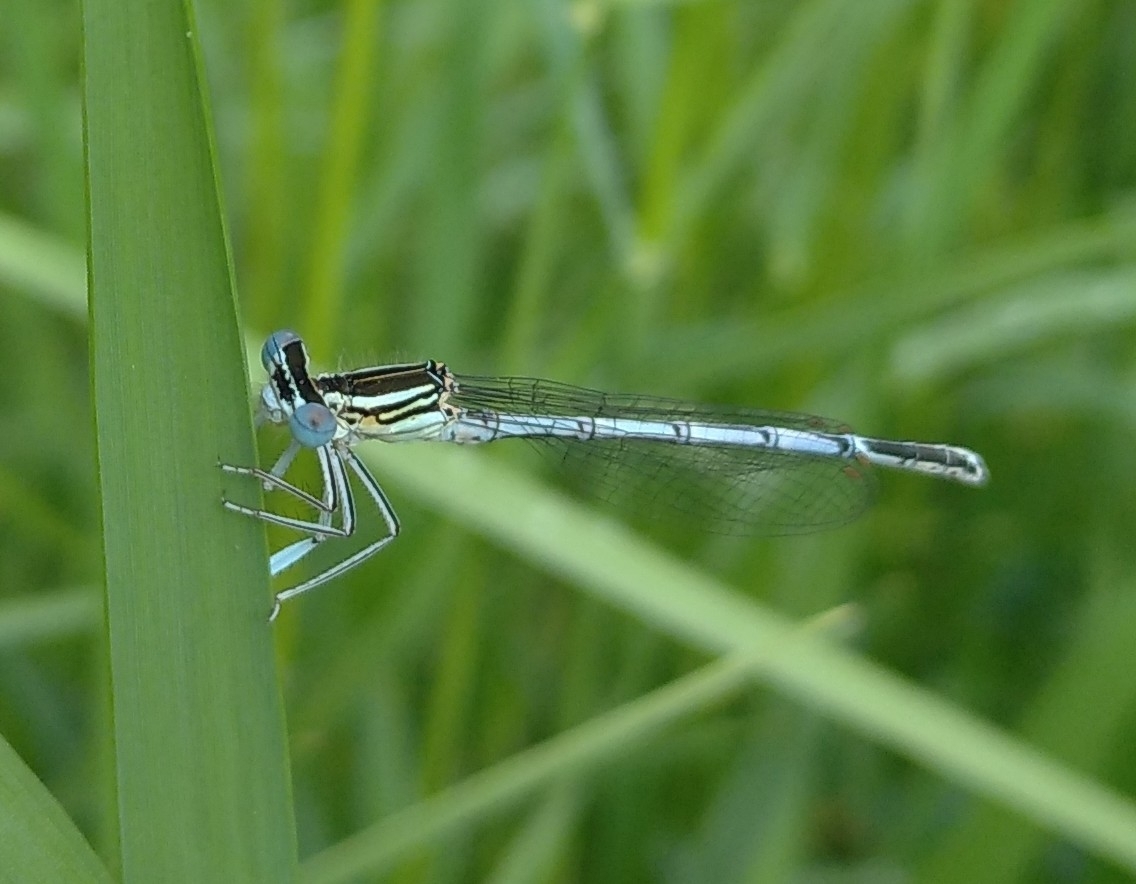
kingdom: Animalia
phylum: Arthropoda
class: Insecta
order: Odonata
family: Platycnemididae
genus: Platycnemis
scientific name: Platycnemis pennipes
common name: White-legged damselfly
